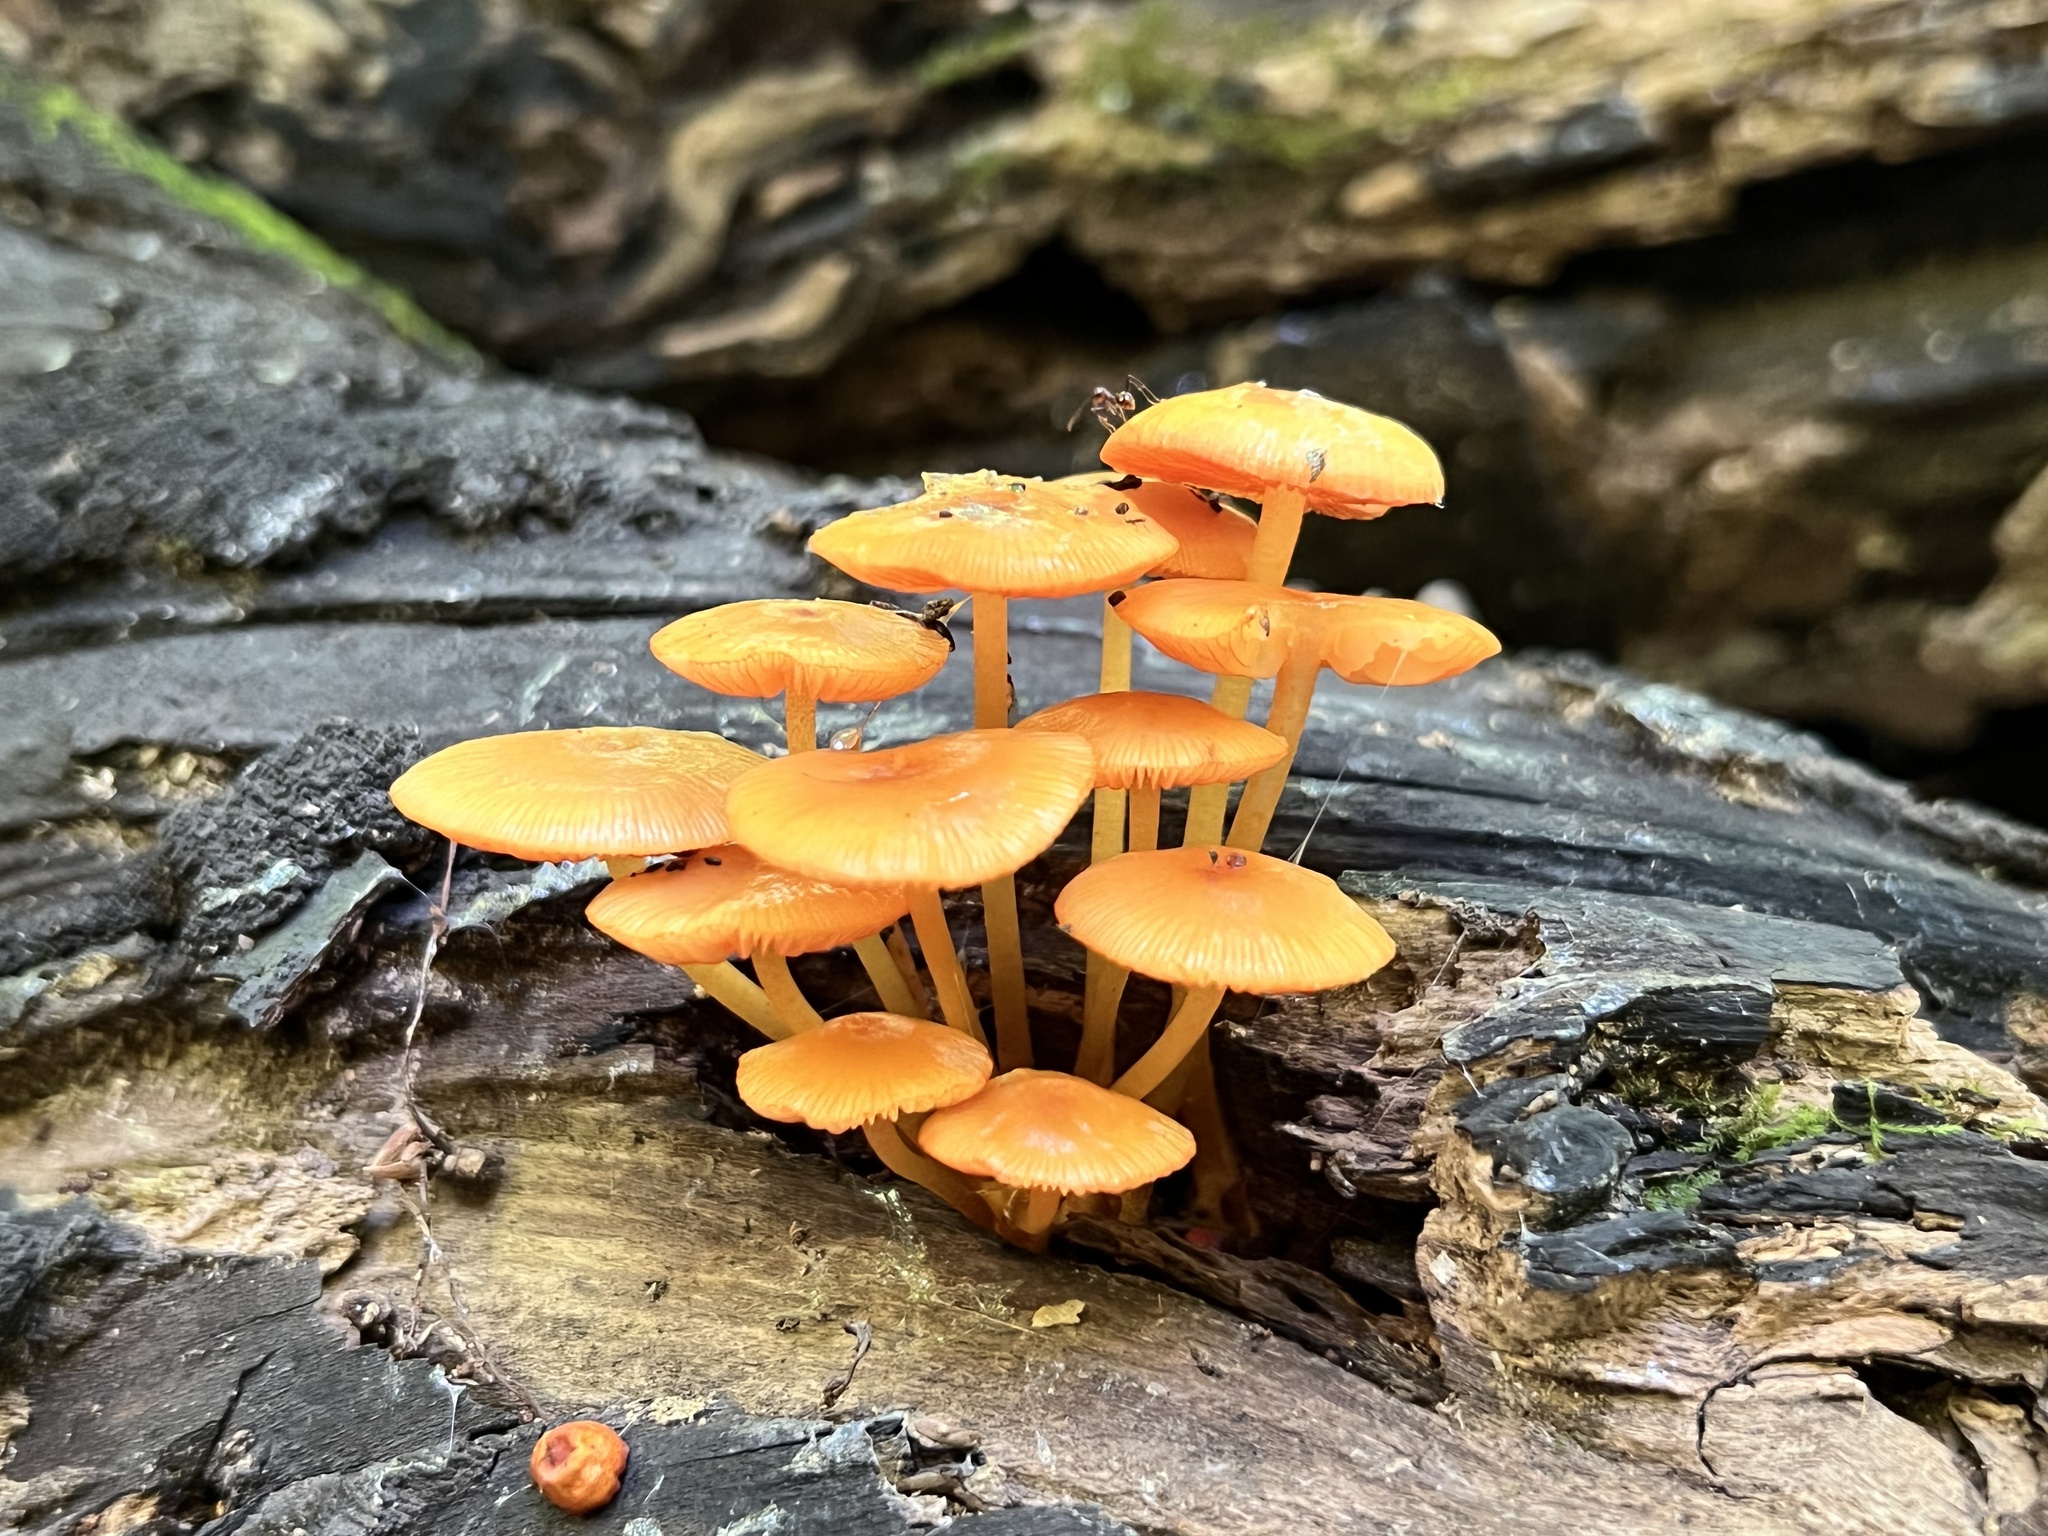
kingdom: Fungi
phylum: Basidiomycota
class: Agaricomycetes
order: Agaricales
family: Mycenaceae
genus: Mycena
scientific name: Mycena leaiana
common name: Orange mycena
